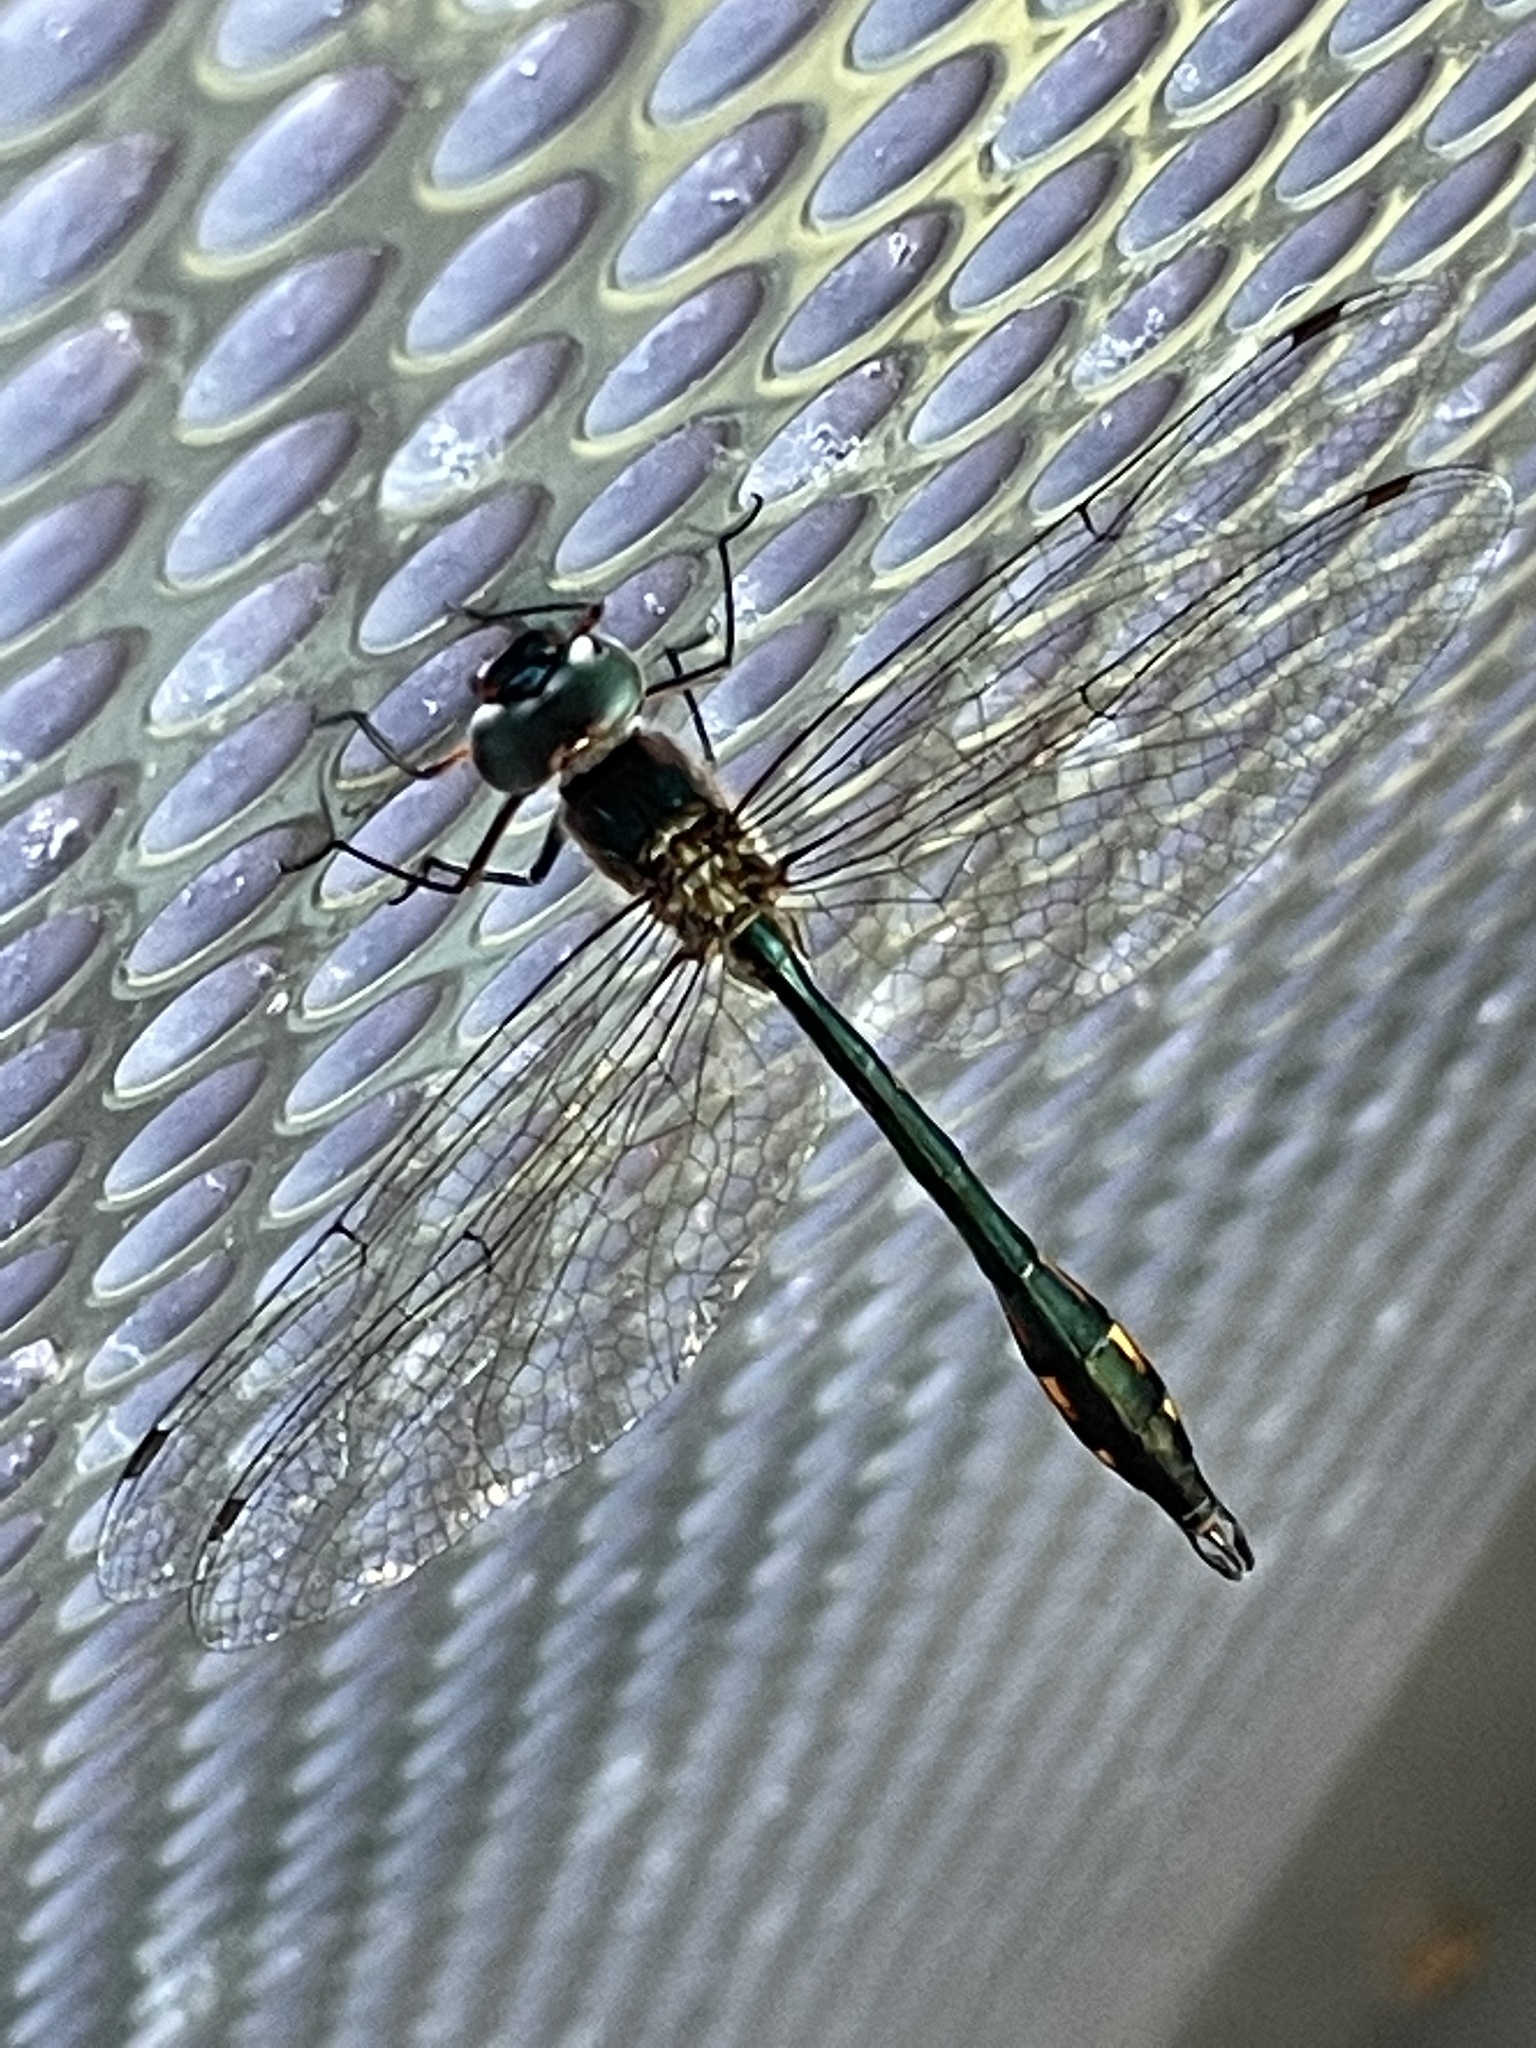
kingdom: Animalia
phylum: Arthropoda
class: Insecta
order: Odonata
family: Corduliidae
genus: Hemicordulia
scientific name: Hemicordulia continentalis
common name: Fat-bellied emerald
